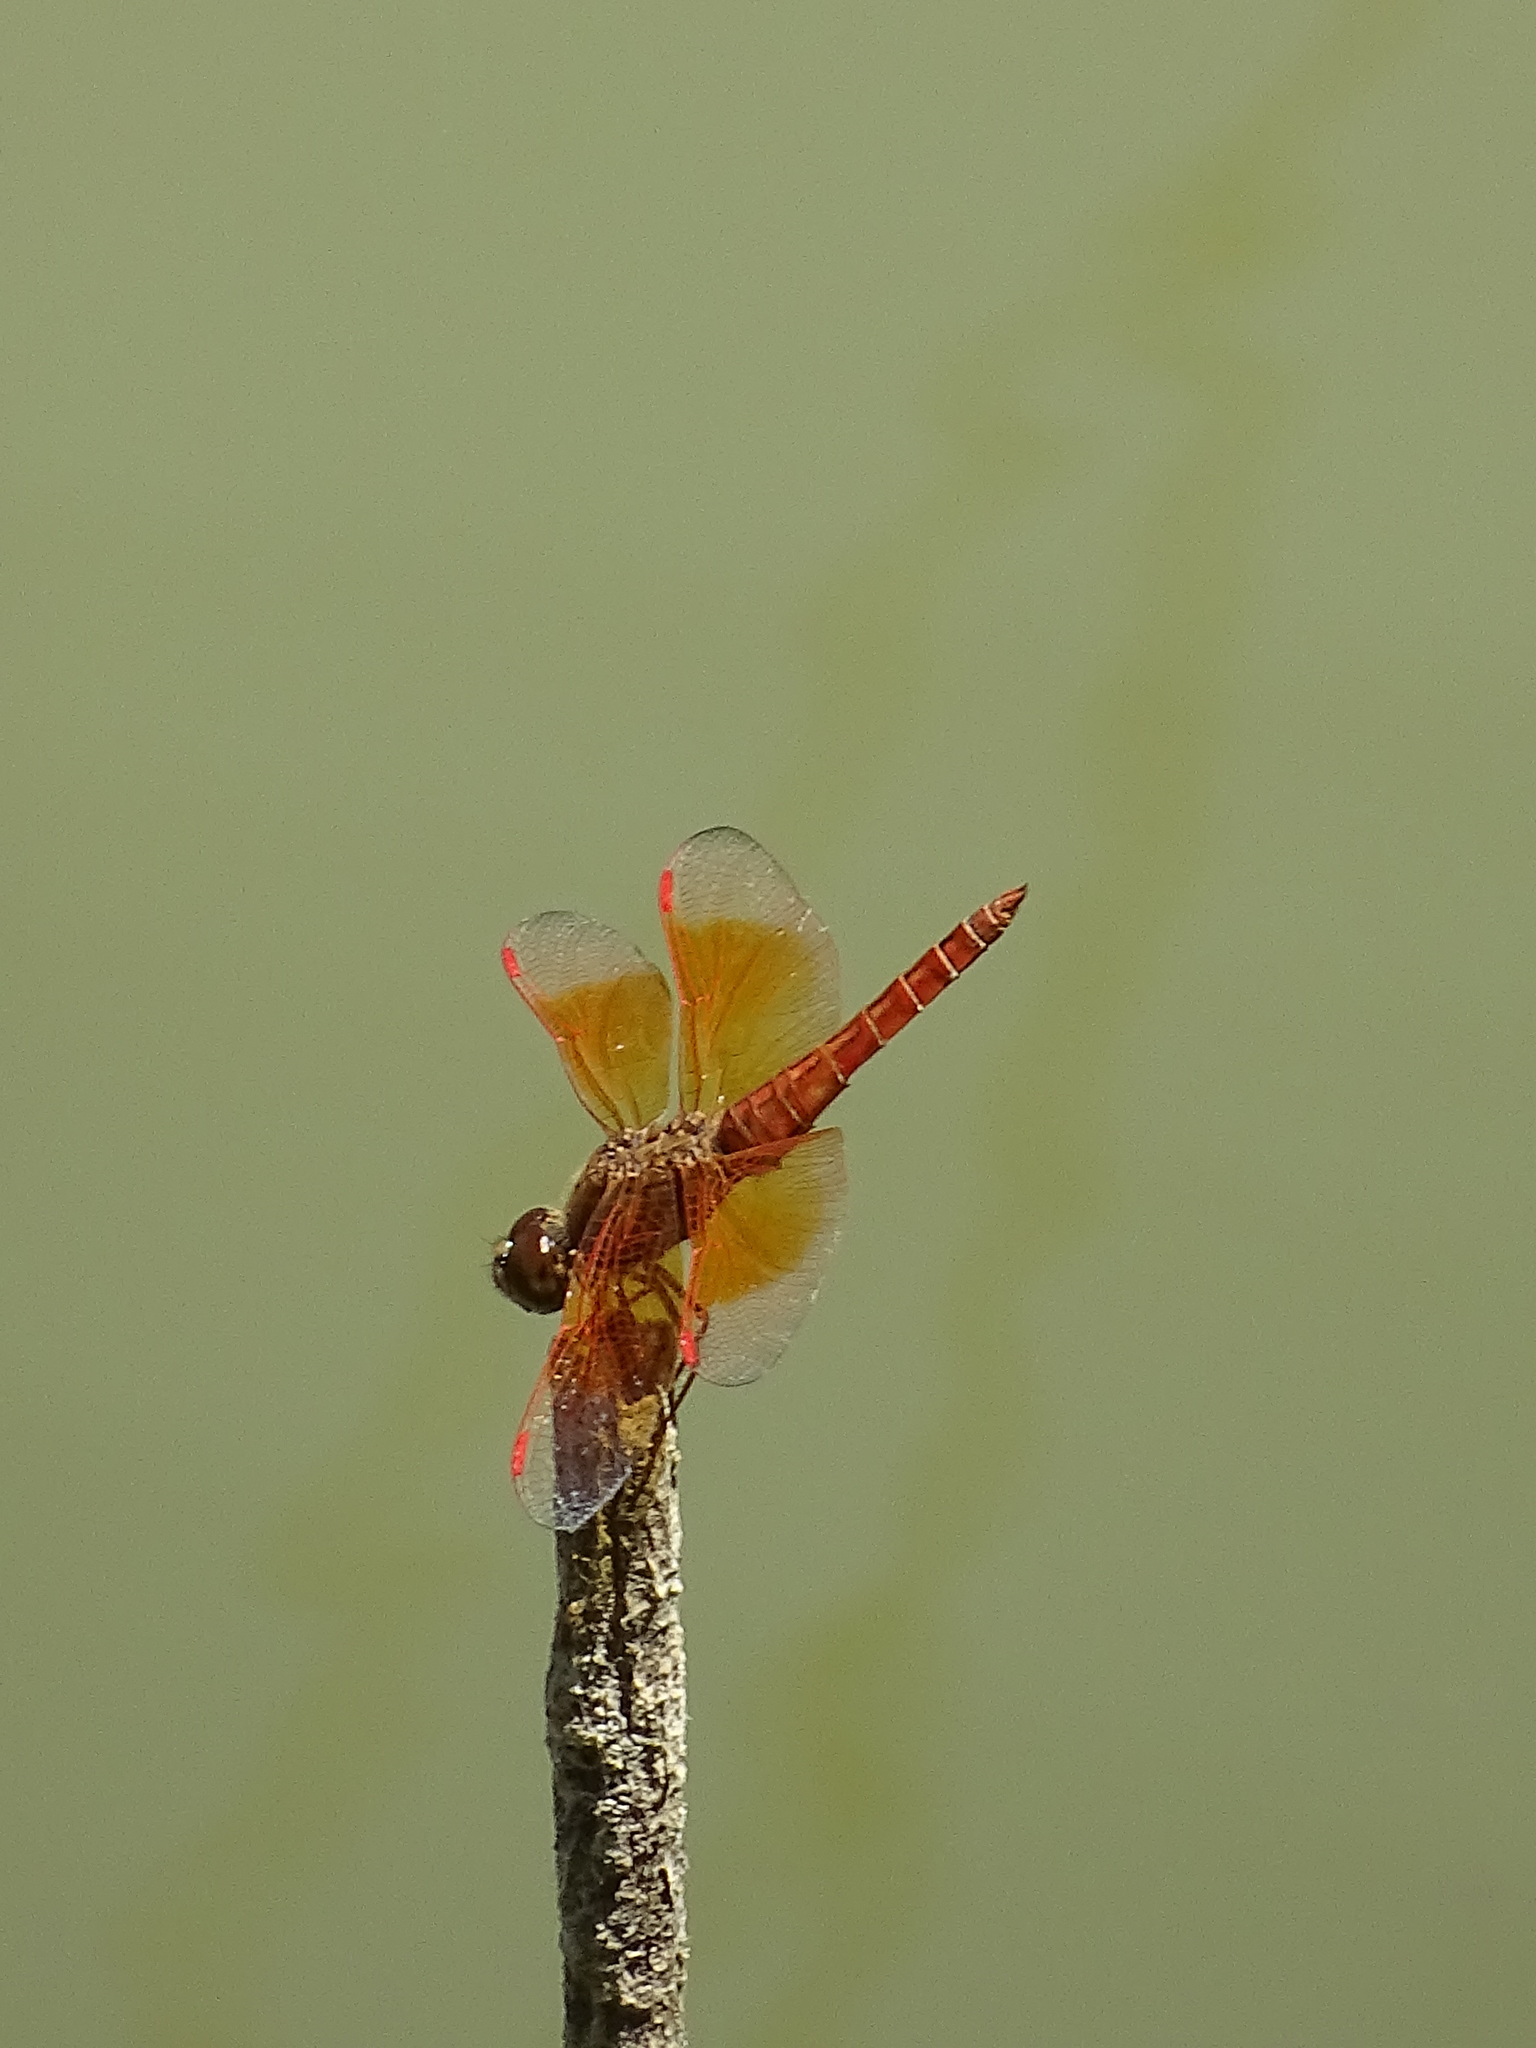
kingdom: Animalia
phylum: Arthropoda
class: Insecta
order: Odonata
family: Libellulidae
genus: Brachythemis
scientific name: Brachythemis contaminata
